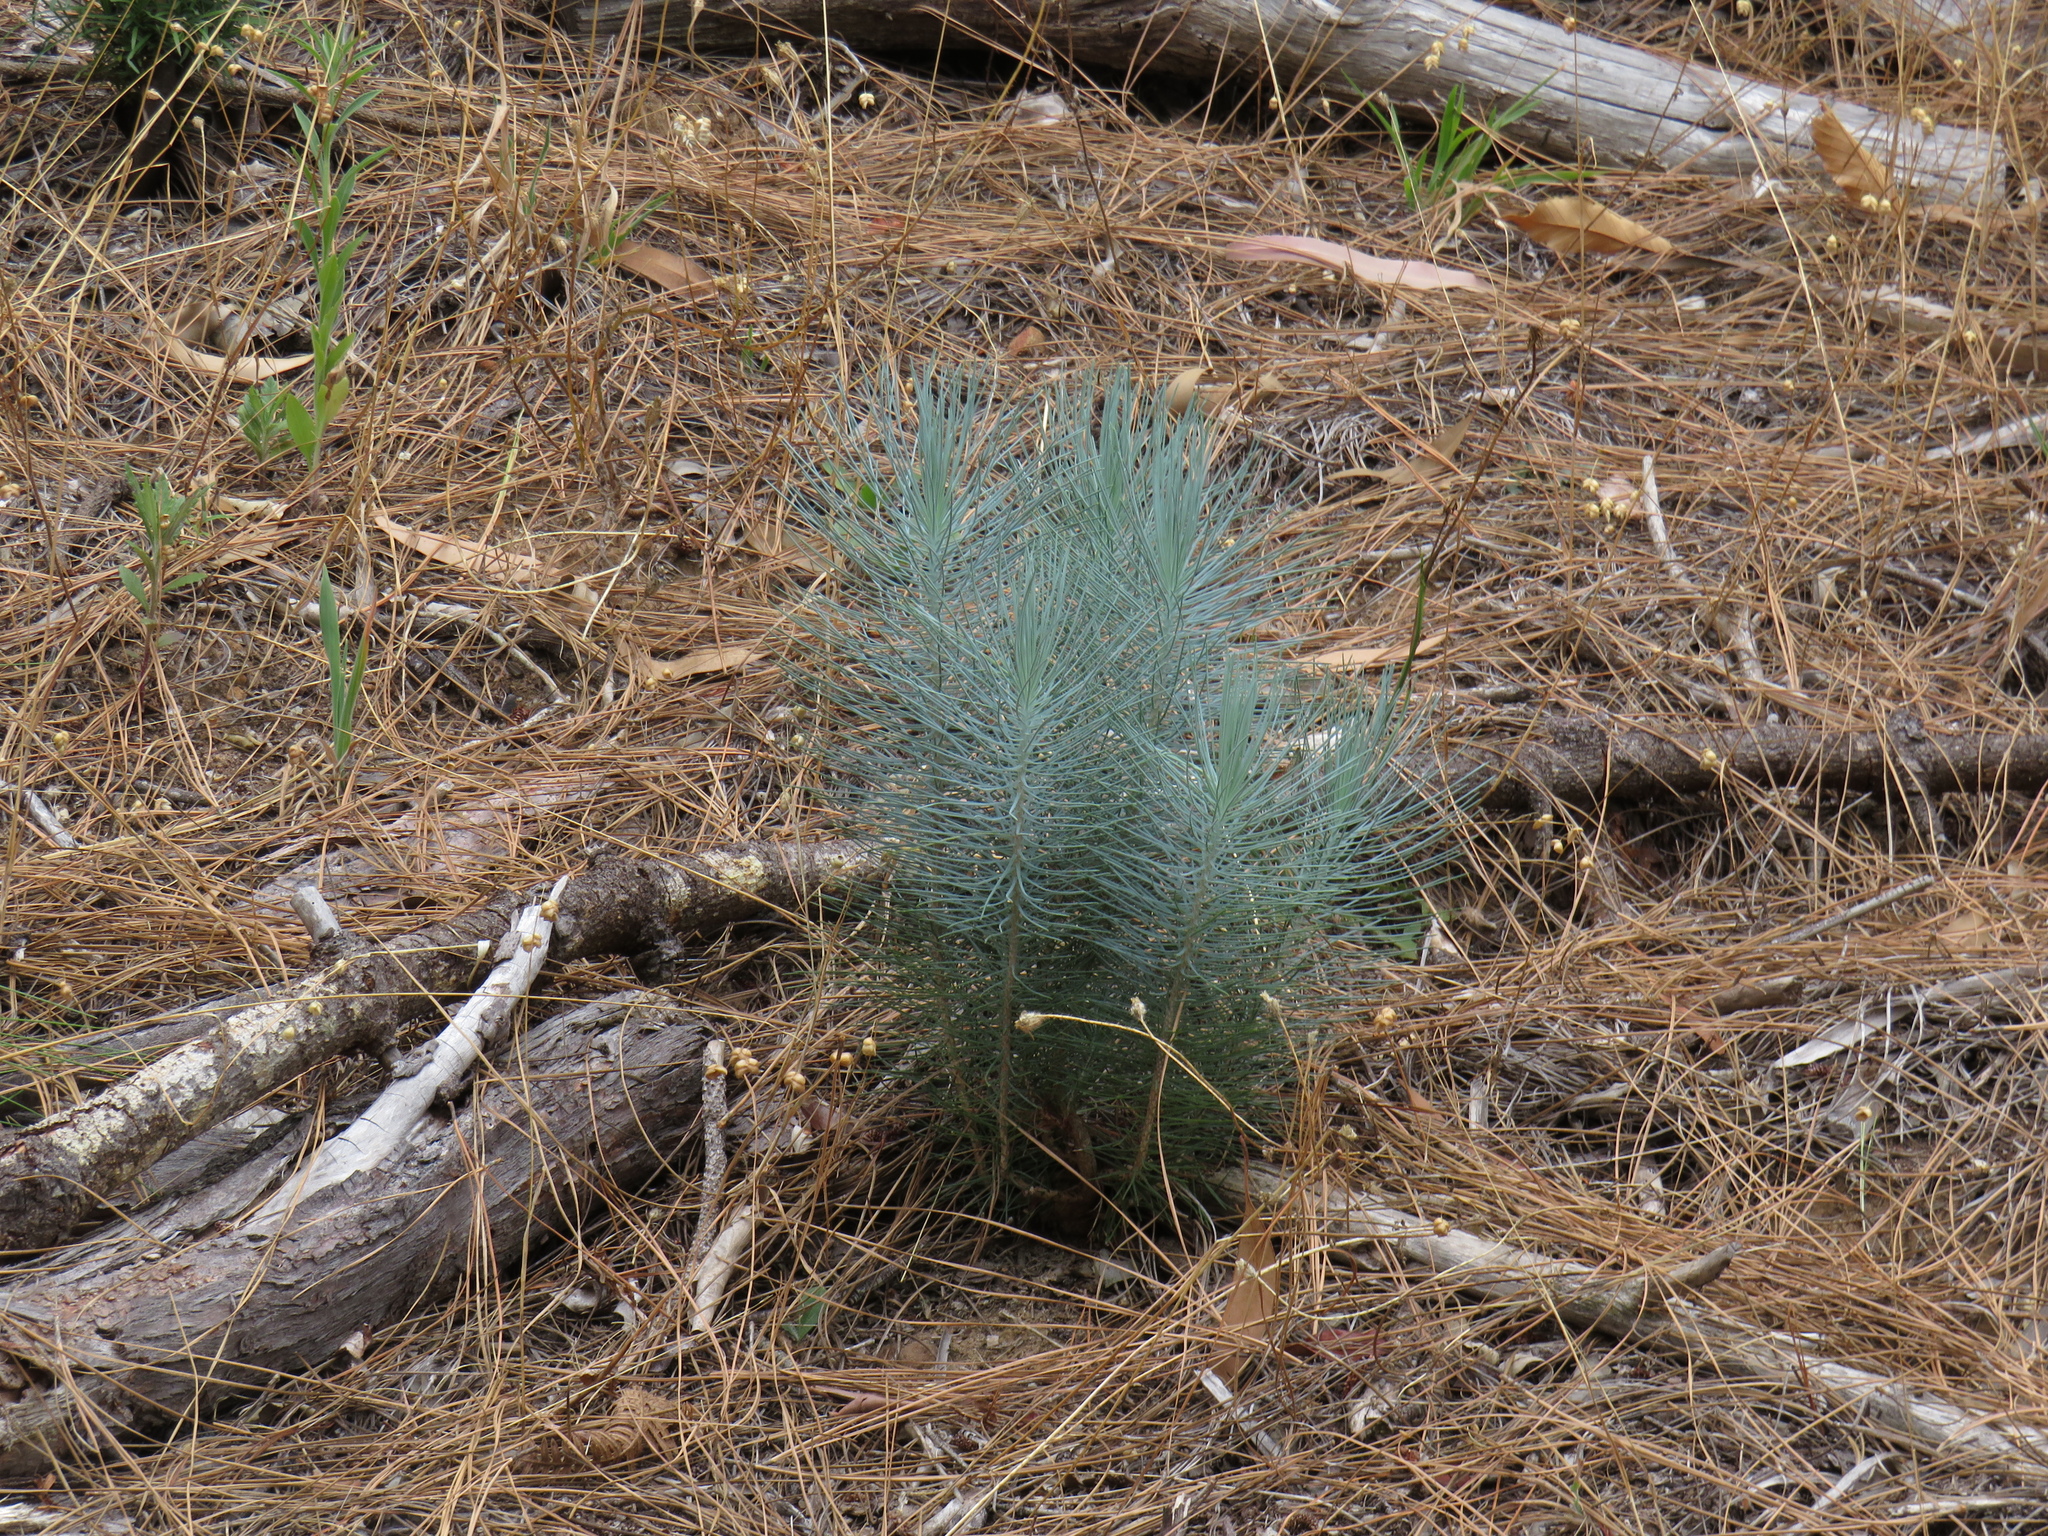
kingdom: Plantae
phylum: Tracheophyta
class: Pinopsida
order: Pinales
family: Pinaceae
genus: Pinus
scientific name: Pinus canariensis
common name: Canary islands pine
